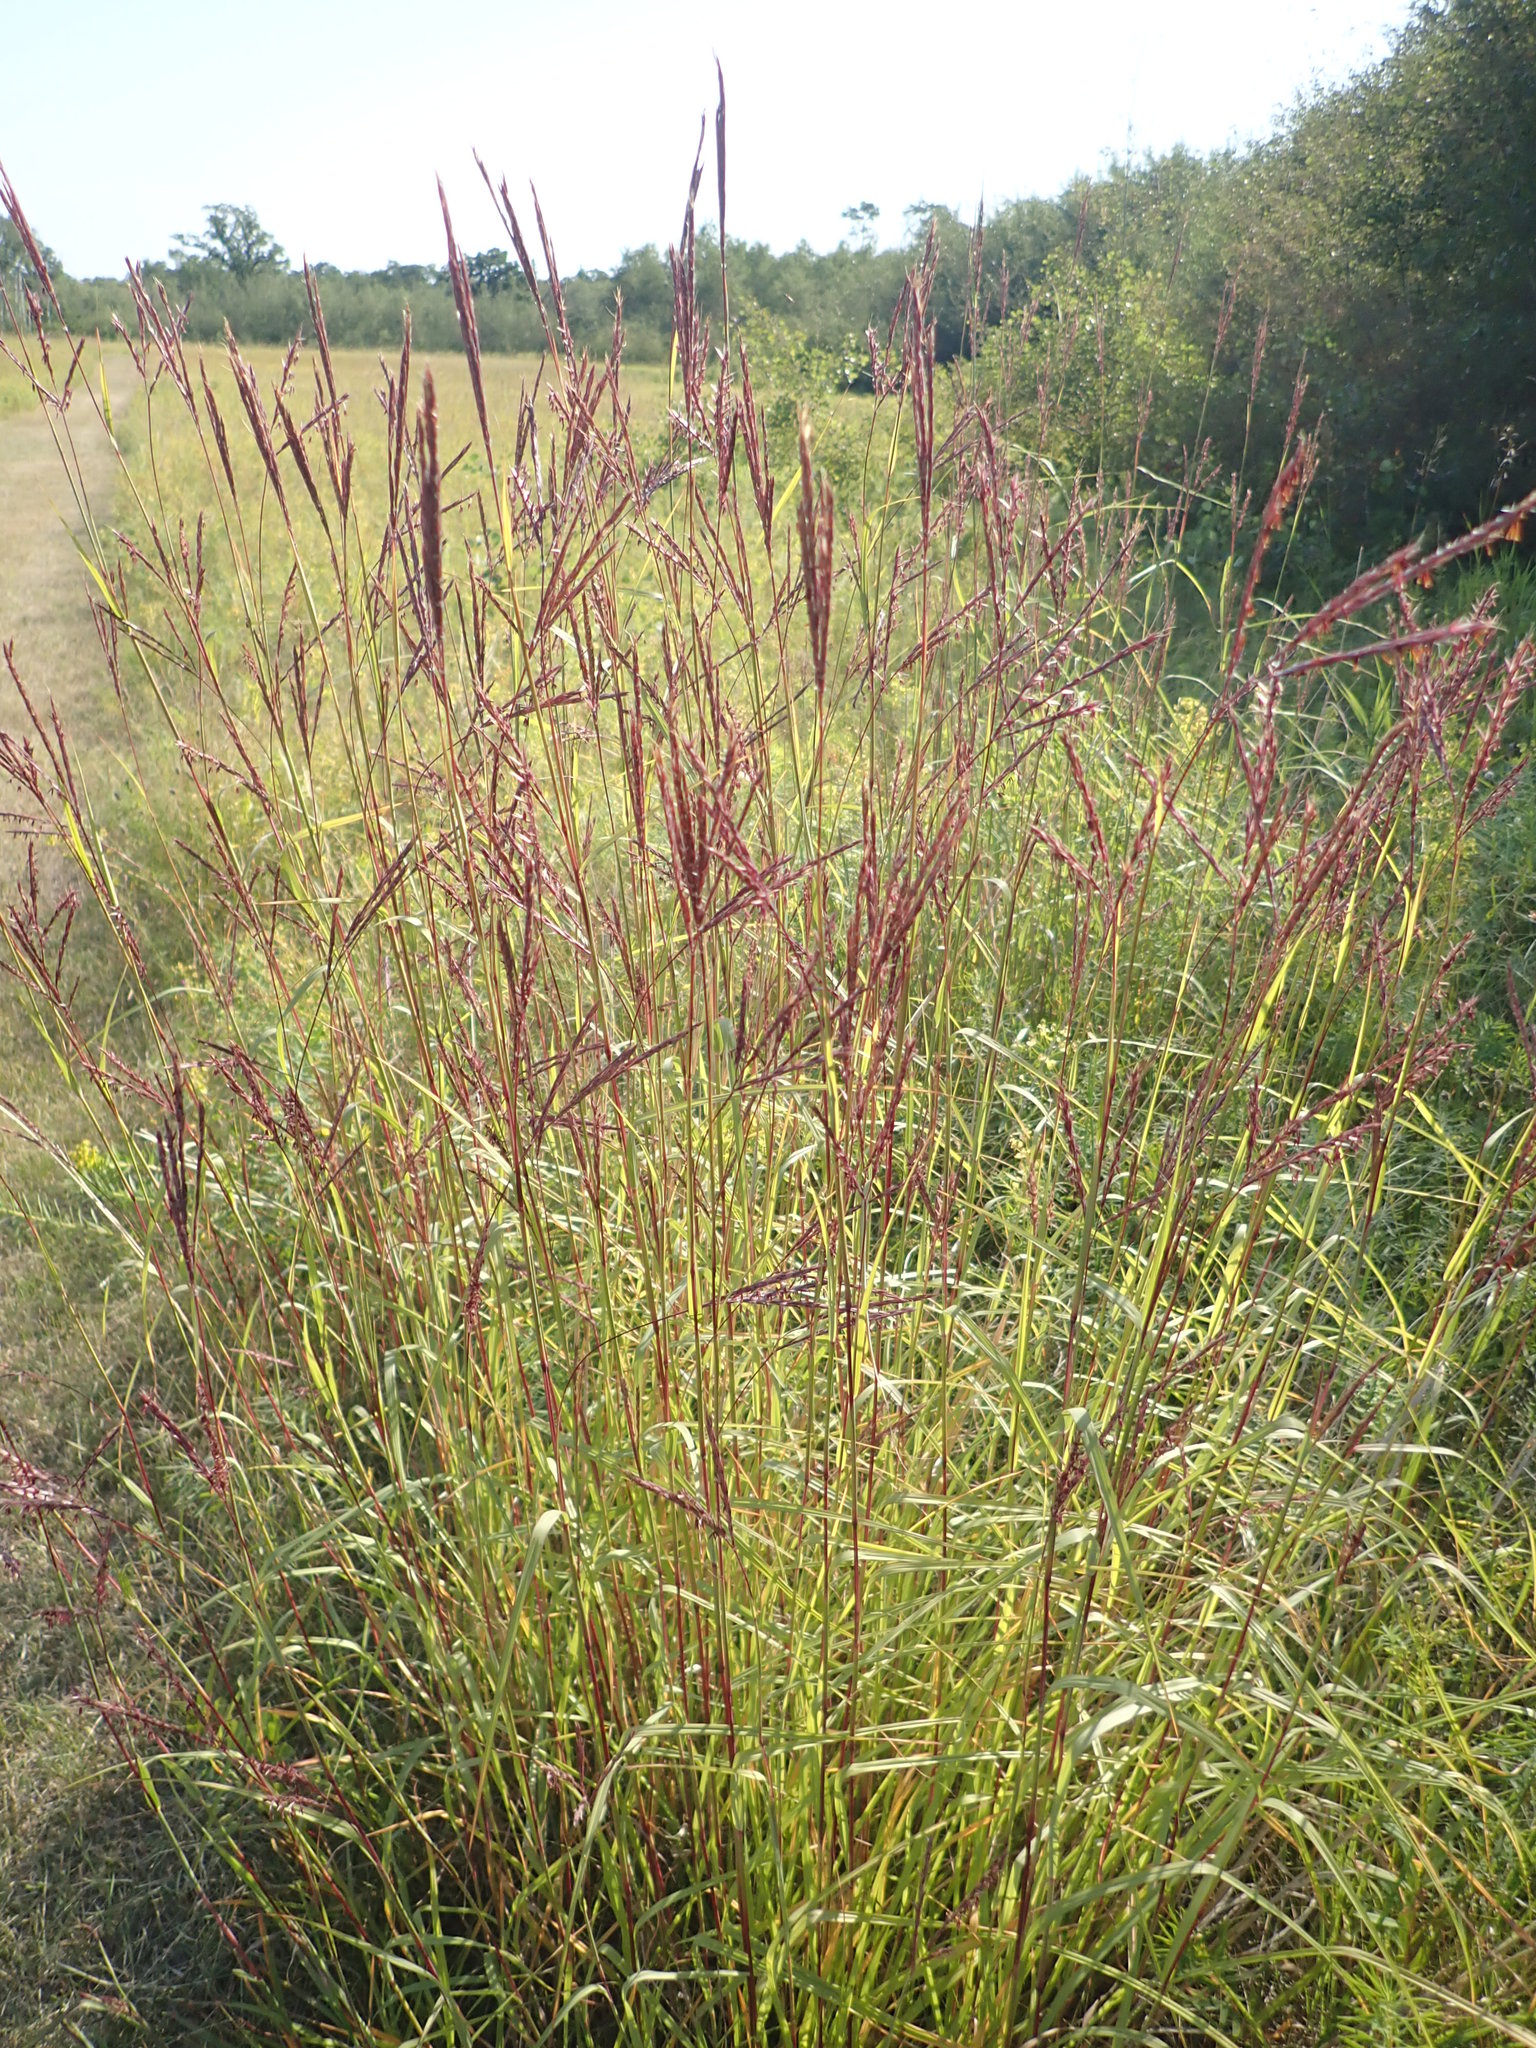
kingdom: Plantae
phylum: Tracheophyta
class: Liliopsida
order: Poales
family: Poaceae
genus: Andropogon
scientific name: Andropogon gerardi
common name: Big bluestem
